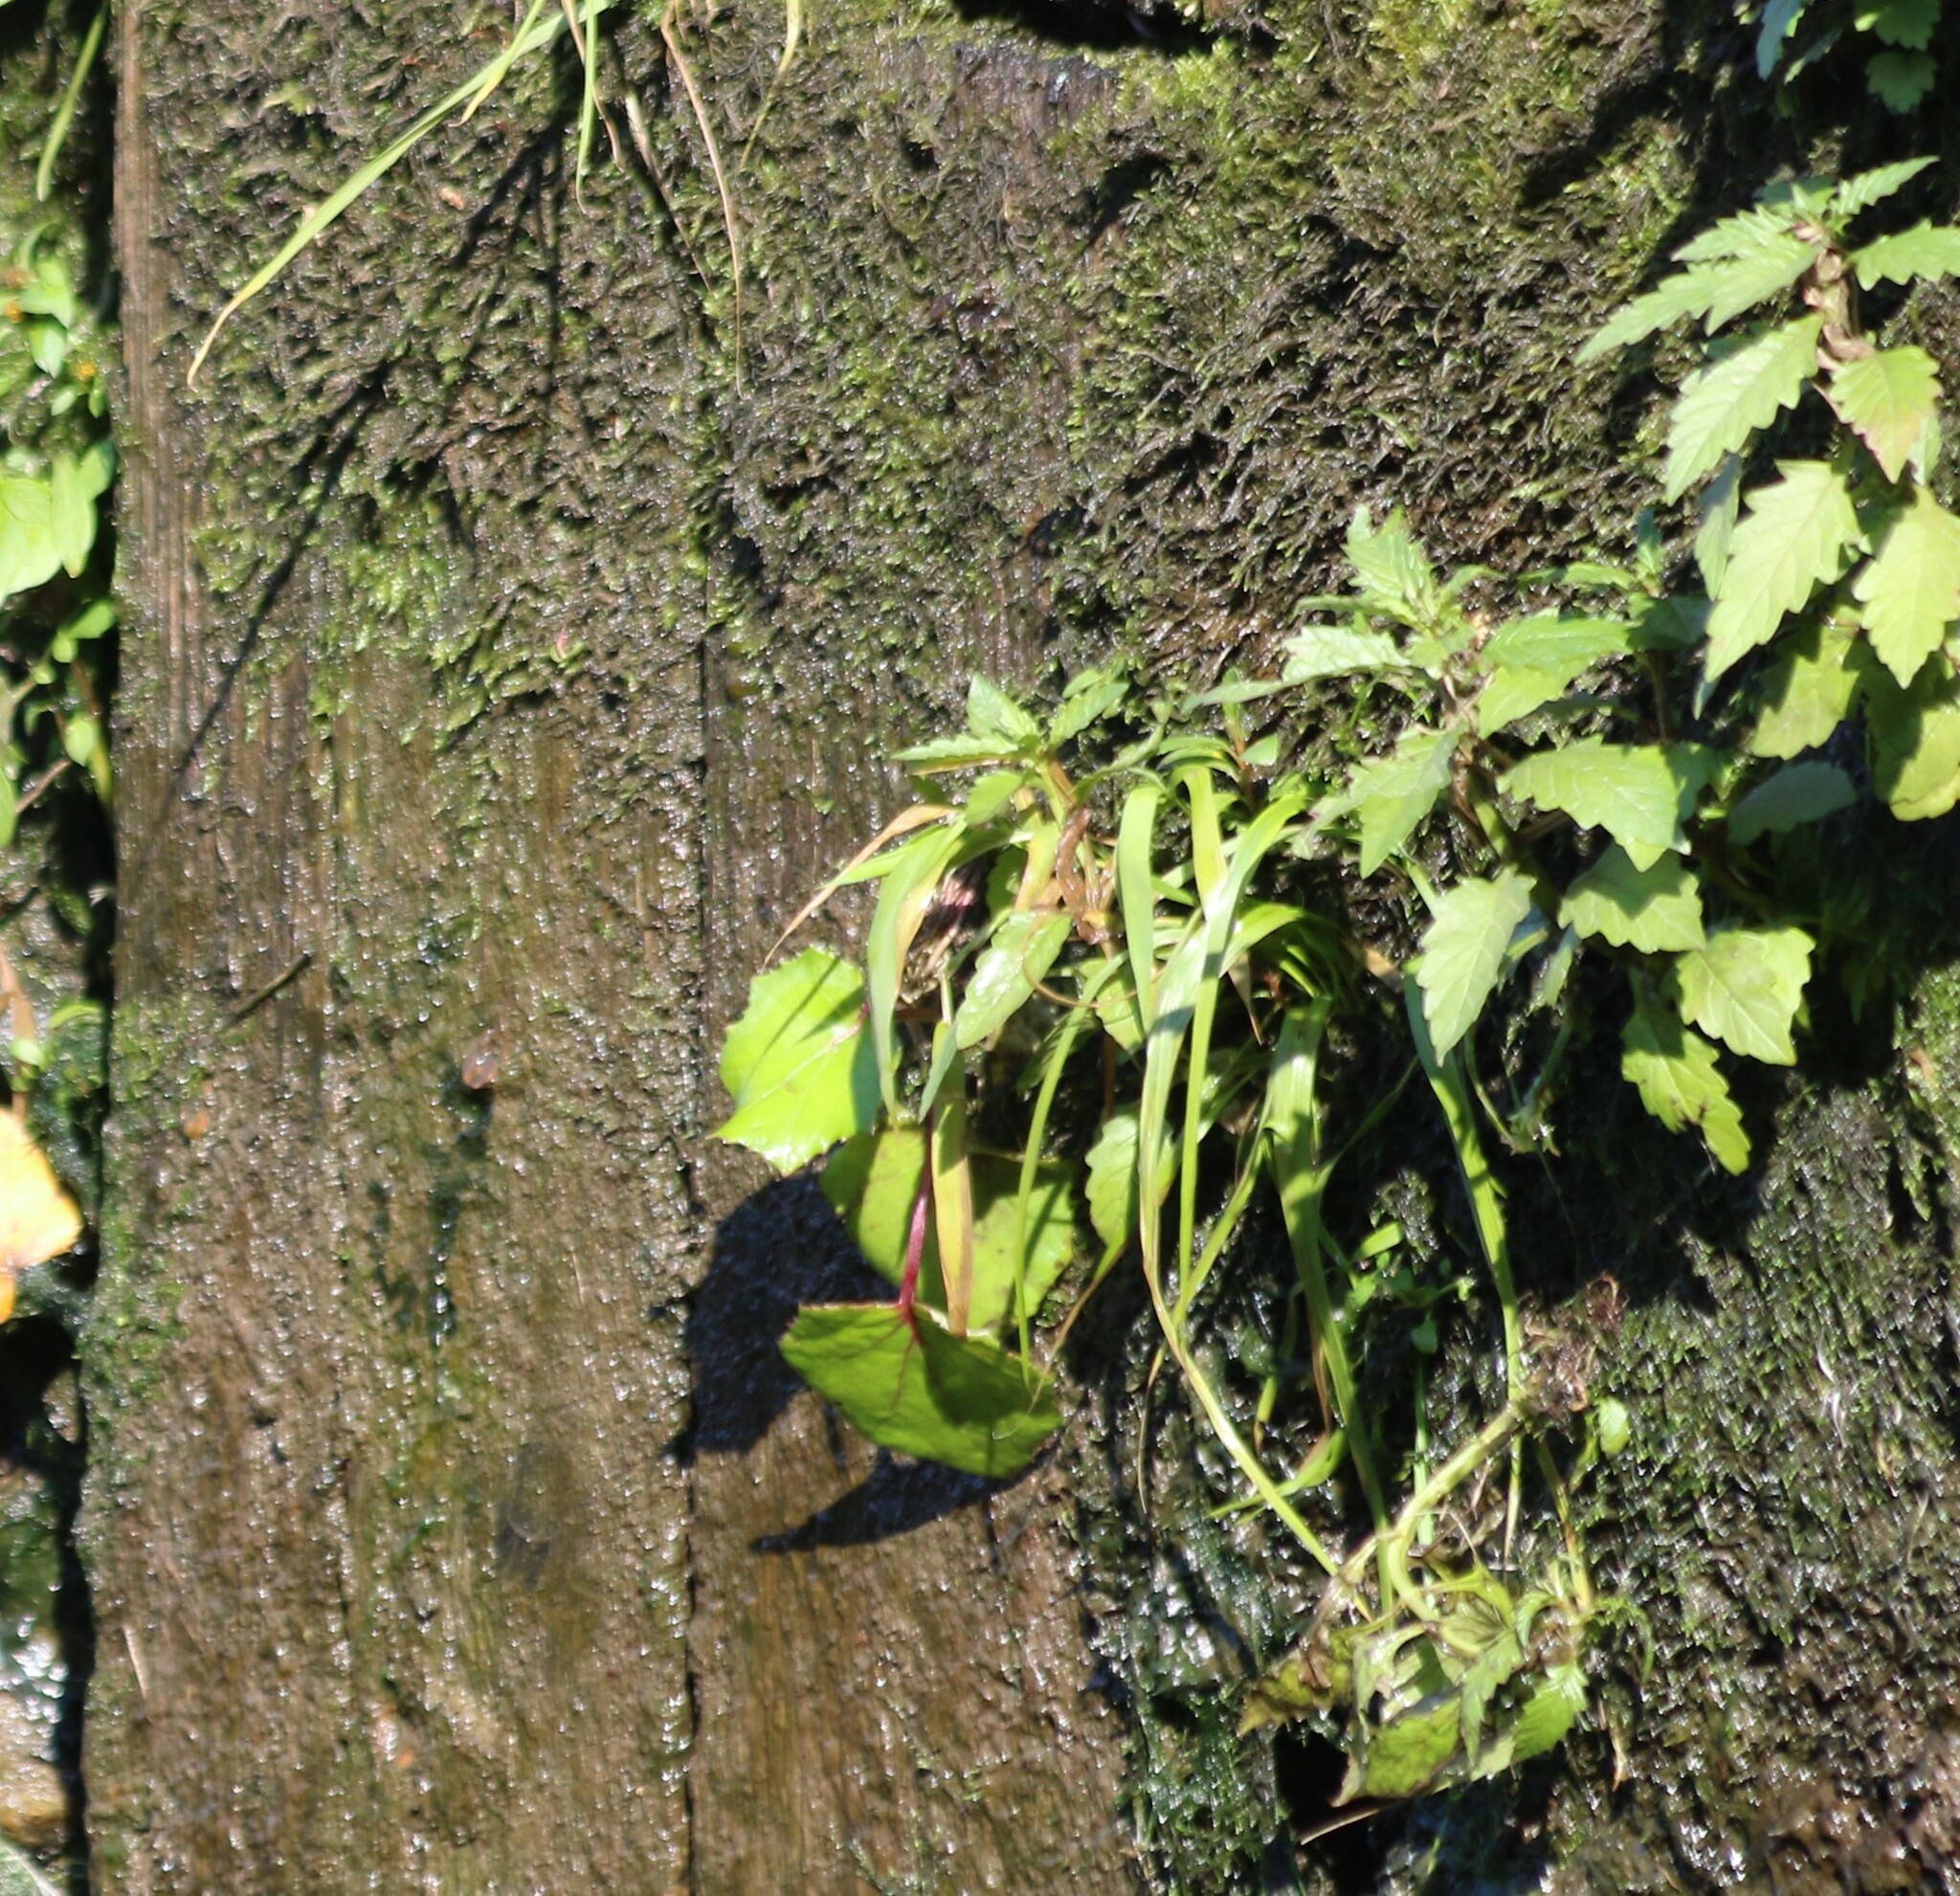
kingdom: Plantae
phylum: Tracheophyta
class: Magnoliopsida
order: Lamiales
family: Lamiaceae
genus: Lycopus
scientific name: Lycopus europaeus
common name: European bugleweed
